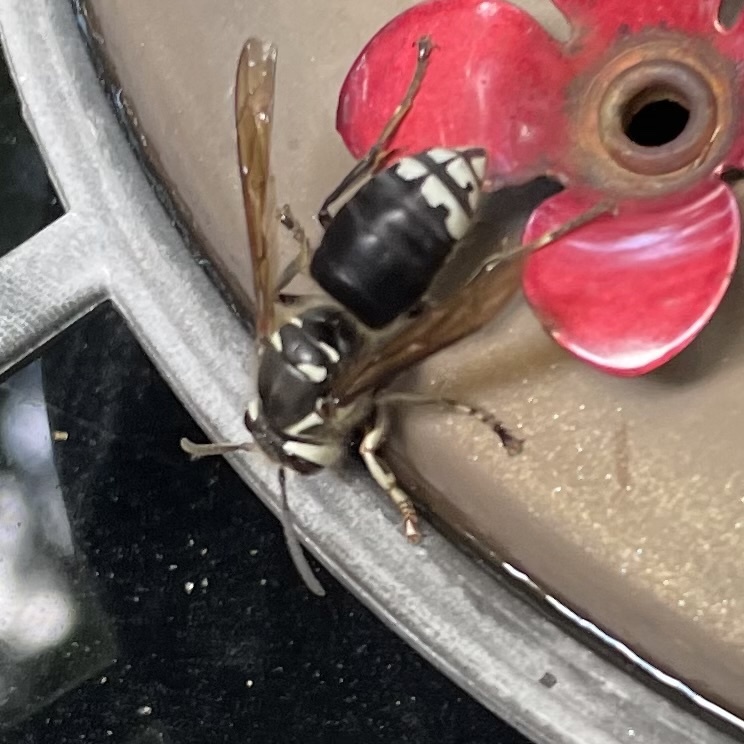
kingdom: Animalia
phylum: Arthropoda
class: Insecta
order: Hymenoptera
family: Vespidae
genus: Dolichovespula
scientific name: Dolichovespula maculata
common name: Bald-faced hornet
